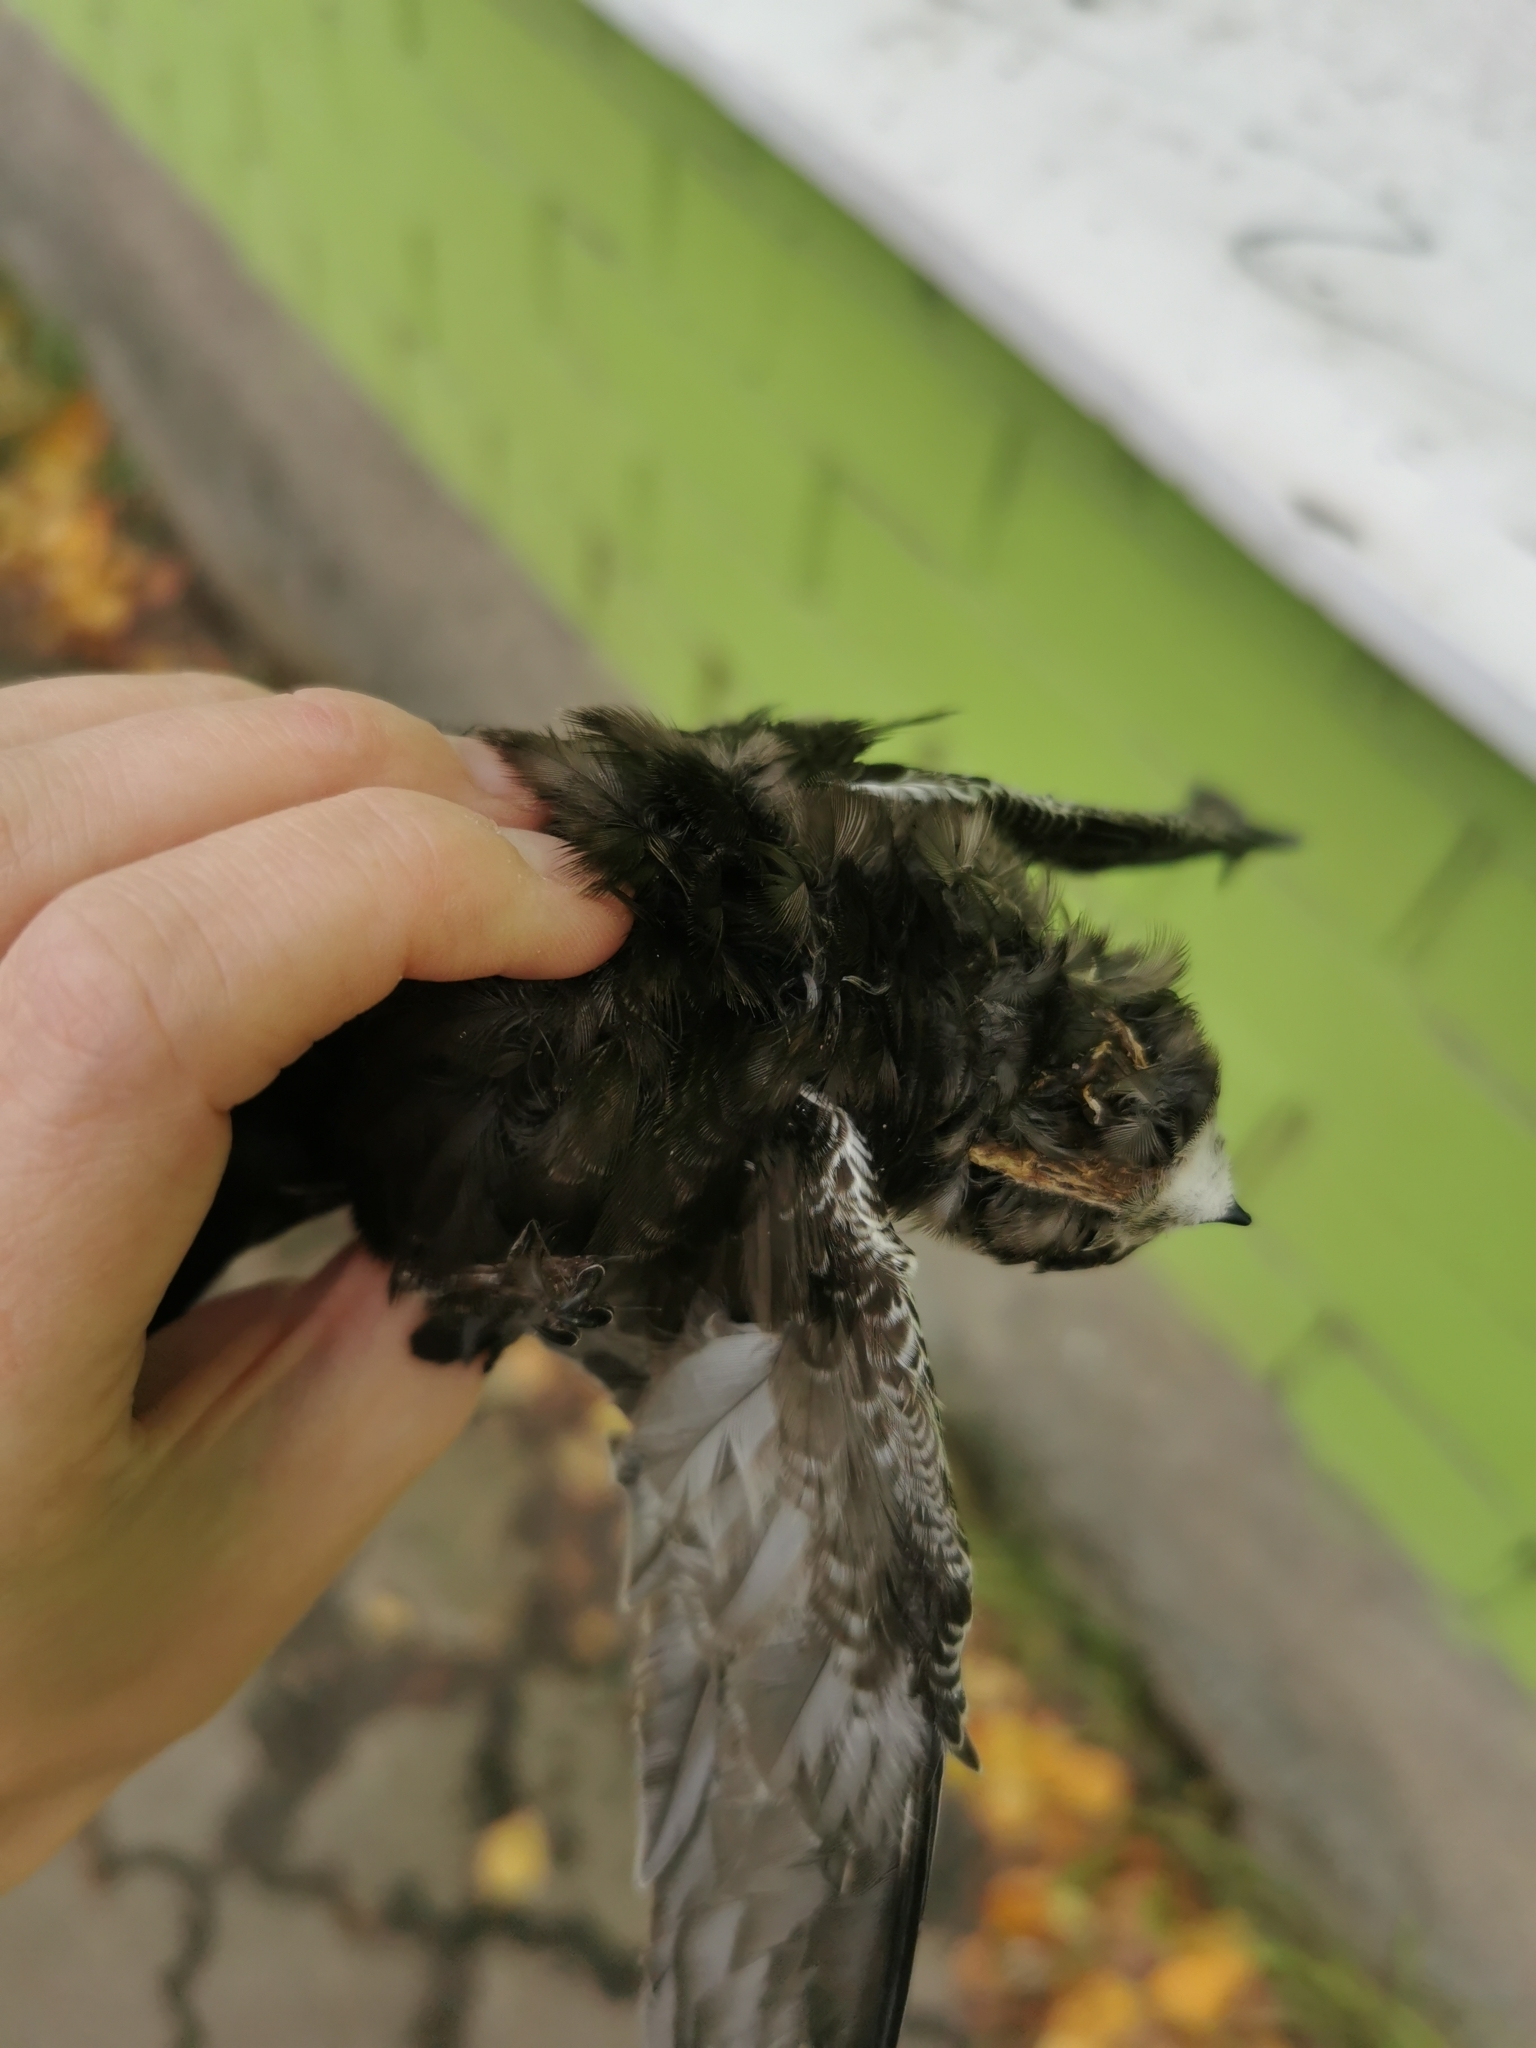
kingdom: Animalia
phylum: Chordata
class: Aves
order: Apodiformes
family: Apodidae
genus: Apus
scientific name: Apus apus
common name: Common swift
